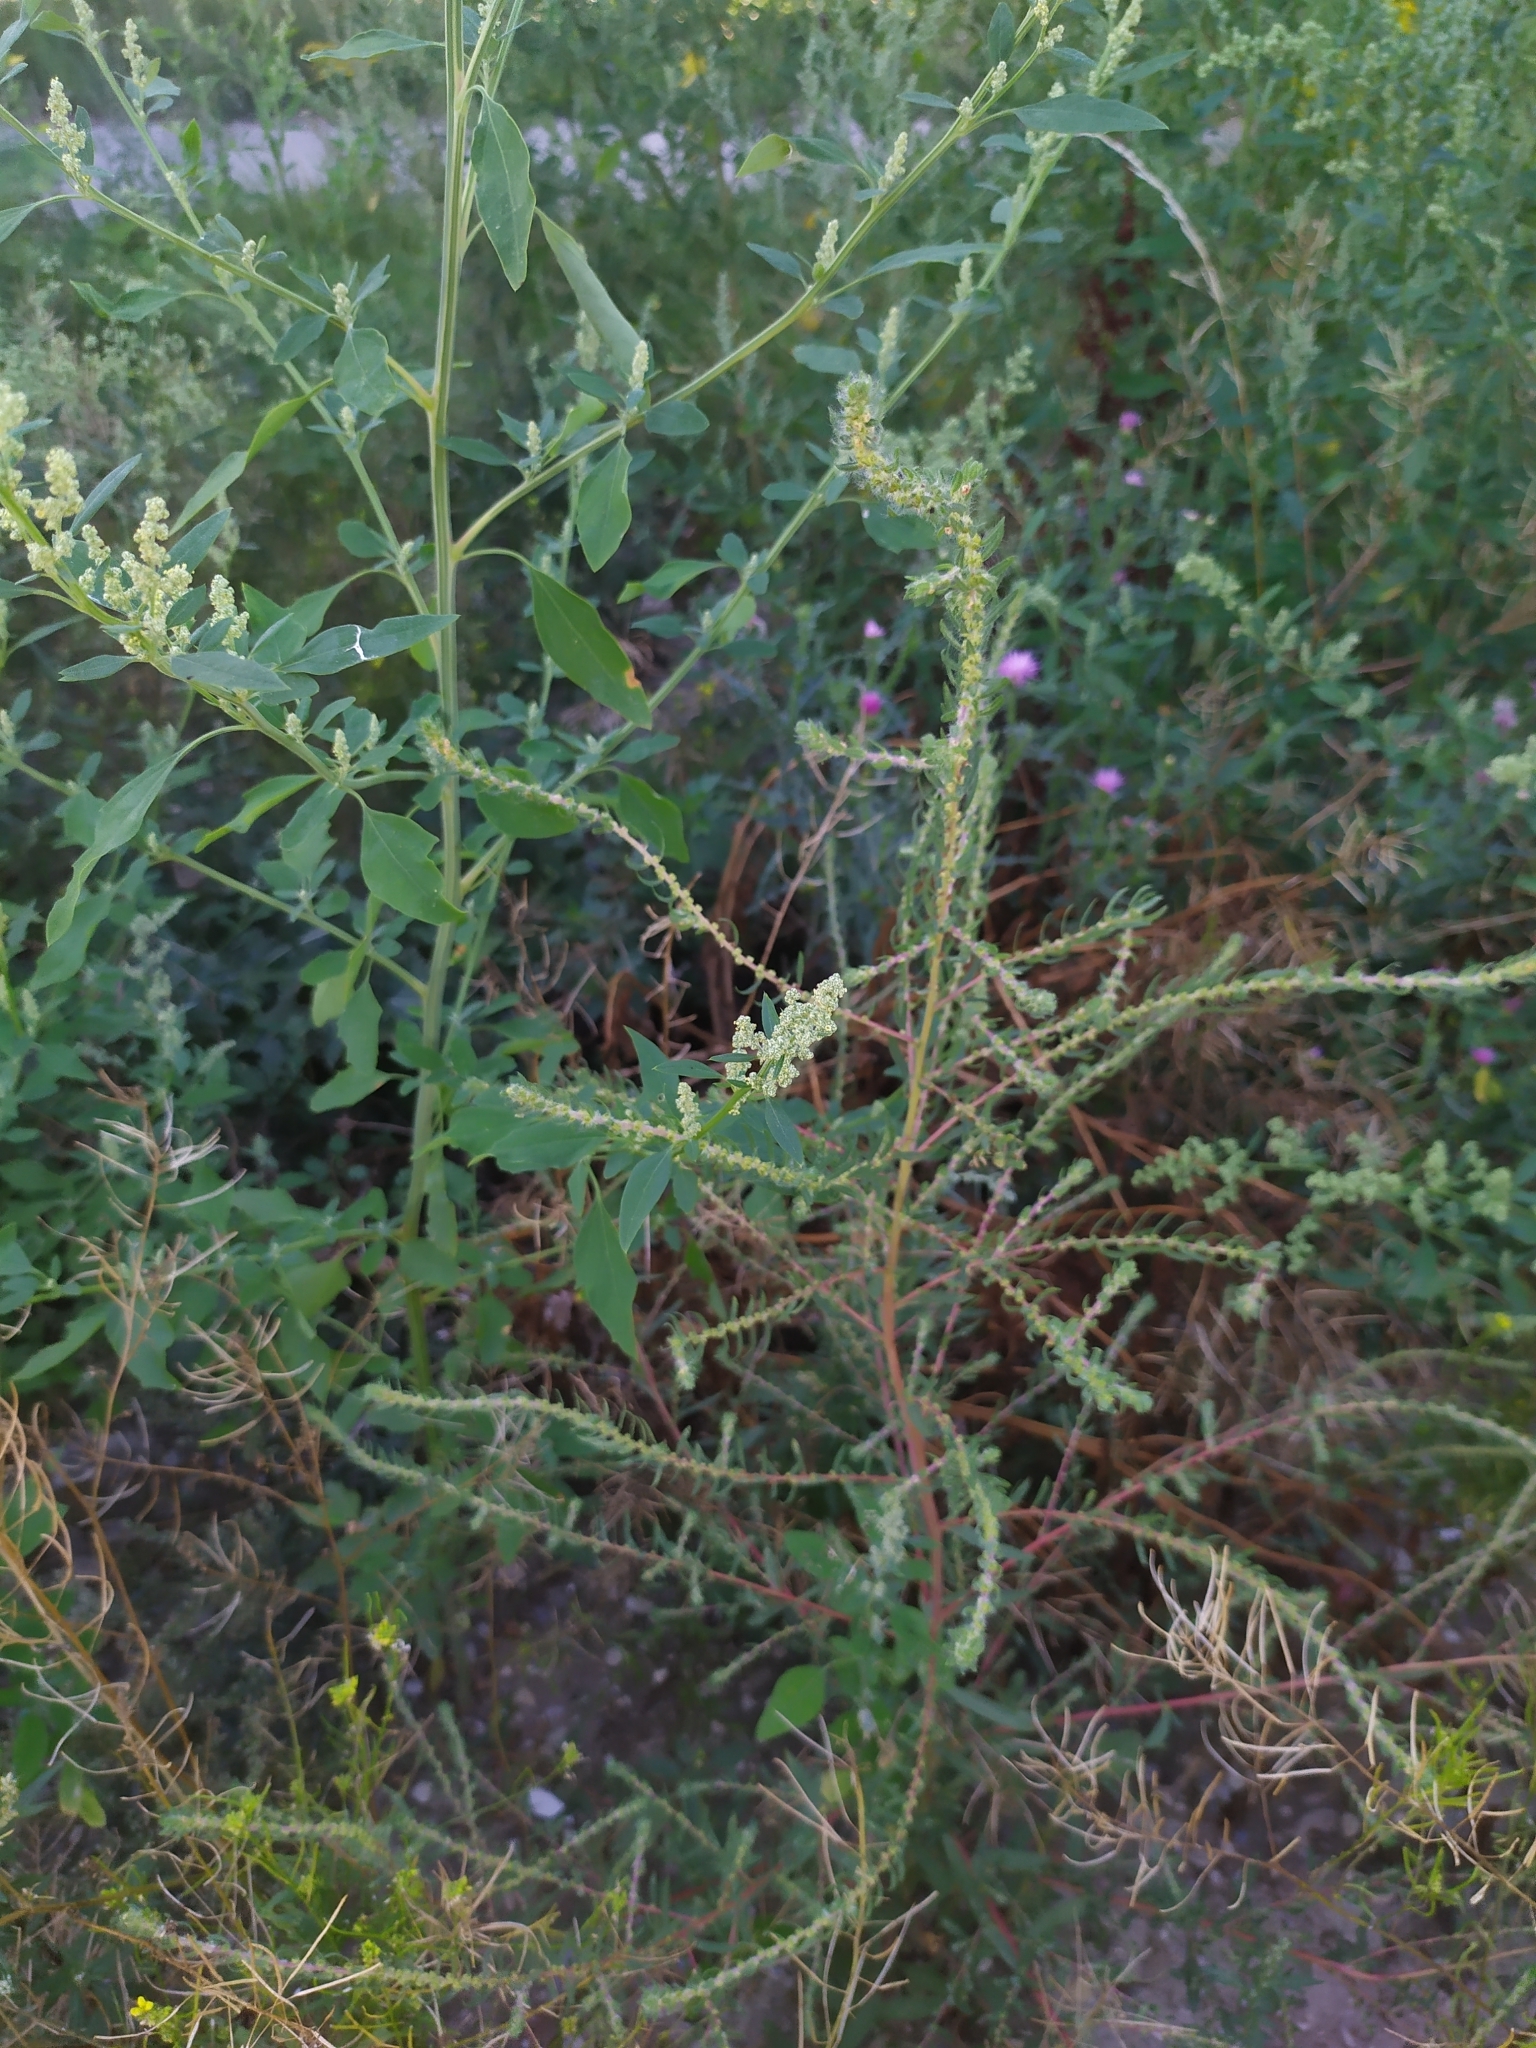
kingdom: Plantae
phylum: Tracheophyta
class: Magnoliopsida
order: Caryophyllales
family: Amaranthaceae
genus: Bassia
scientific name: Bassia scoparia
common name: Belvedere
